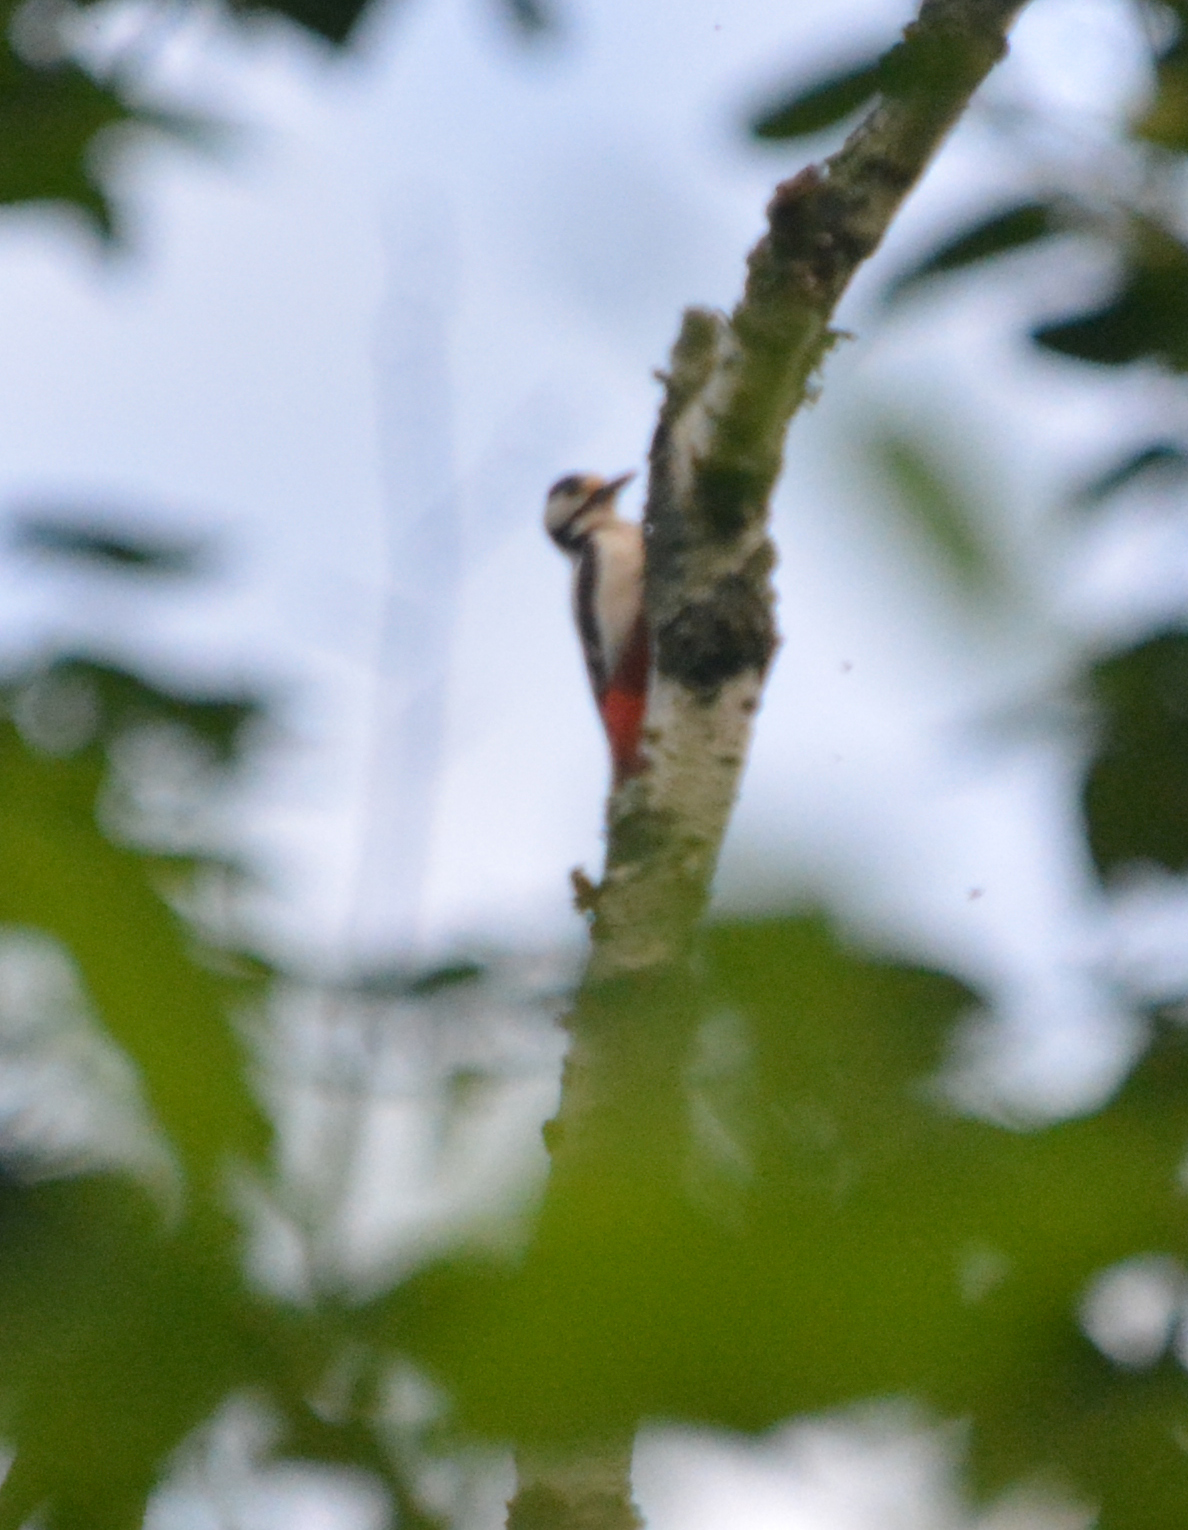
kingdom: Animalia
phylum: Chordata
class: Aves
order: Piciformes
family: Picidae
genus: Dendrocopos
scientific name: Dendrocopos major
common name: Great spotted woodpecker
